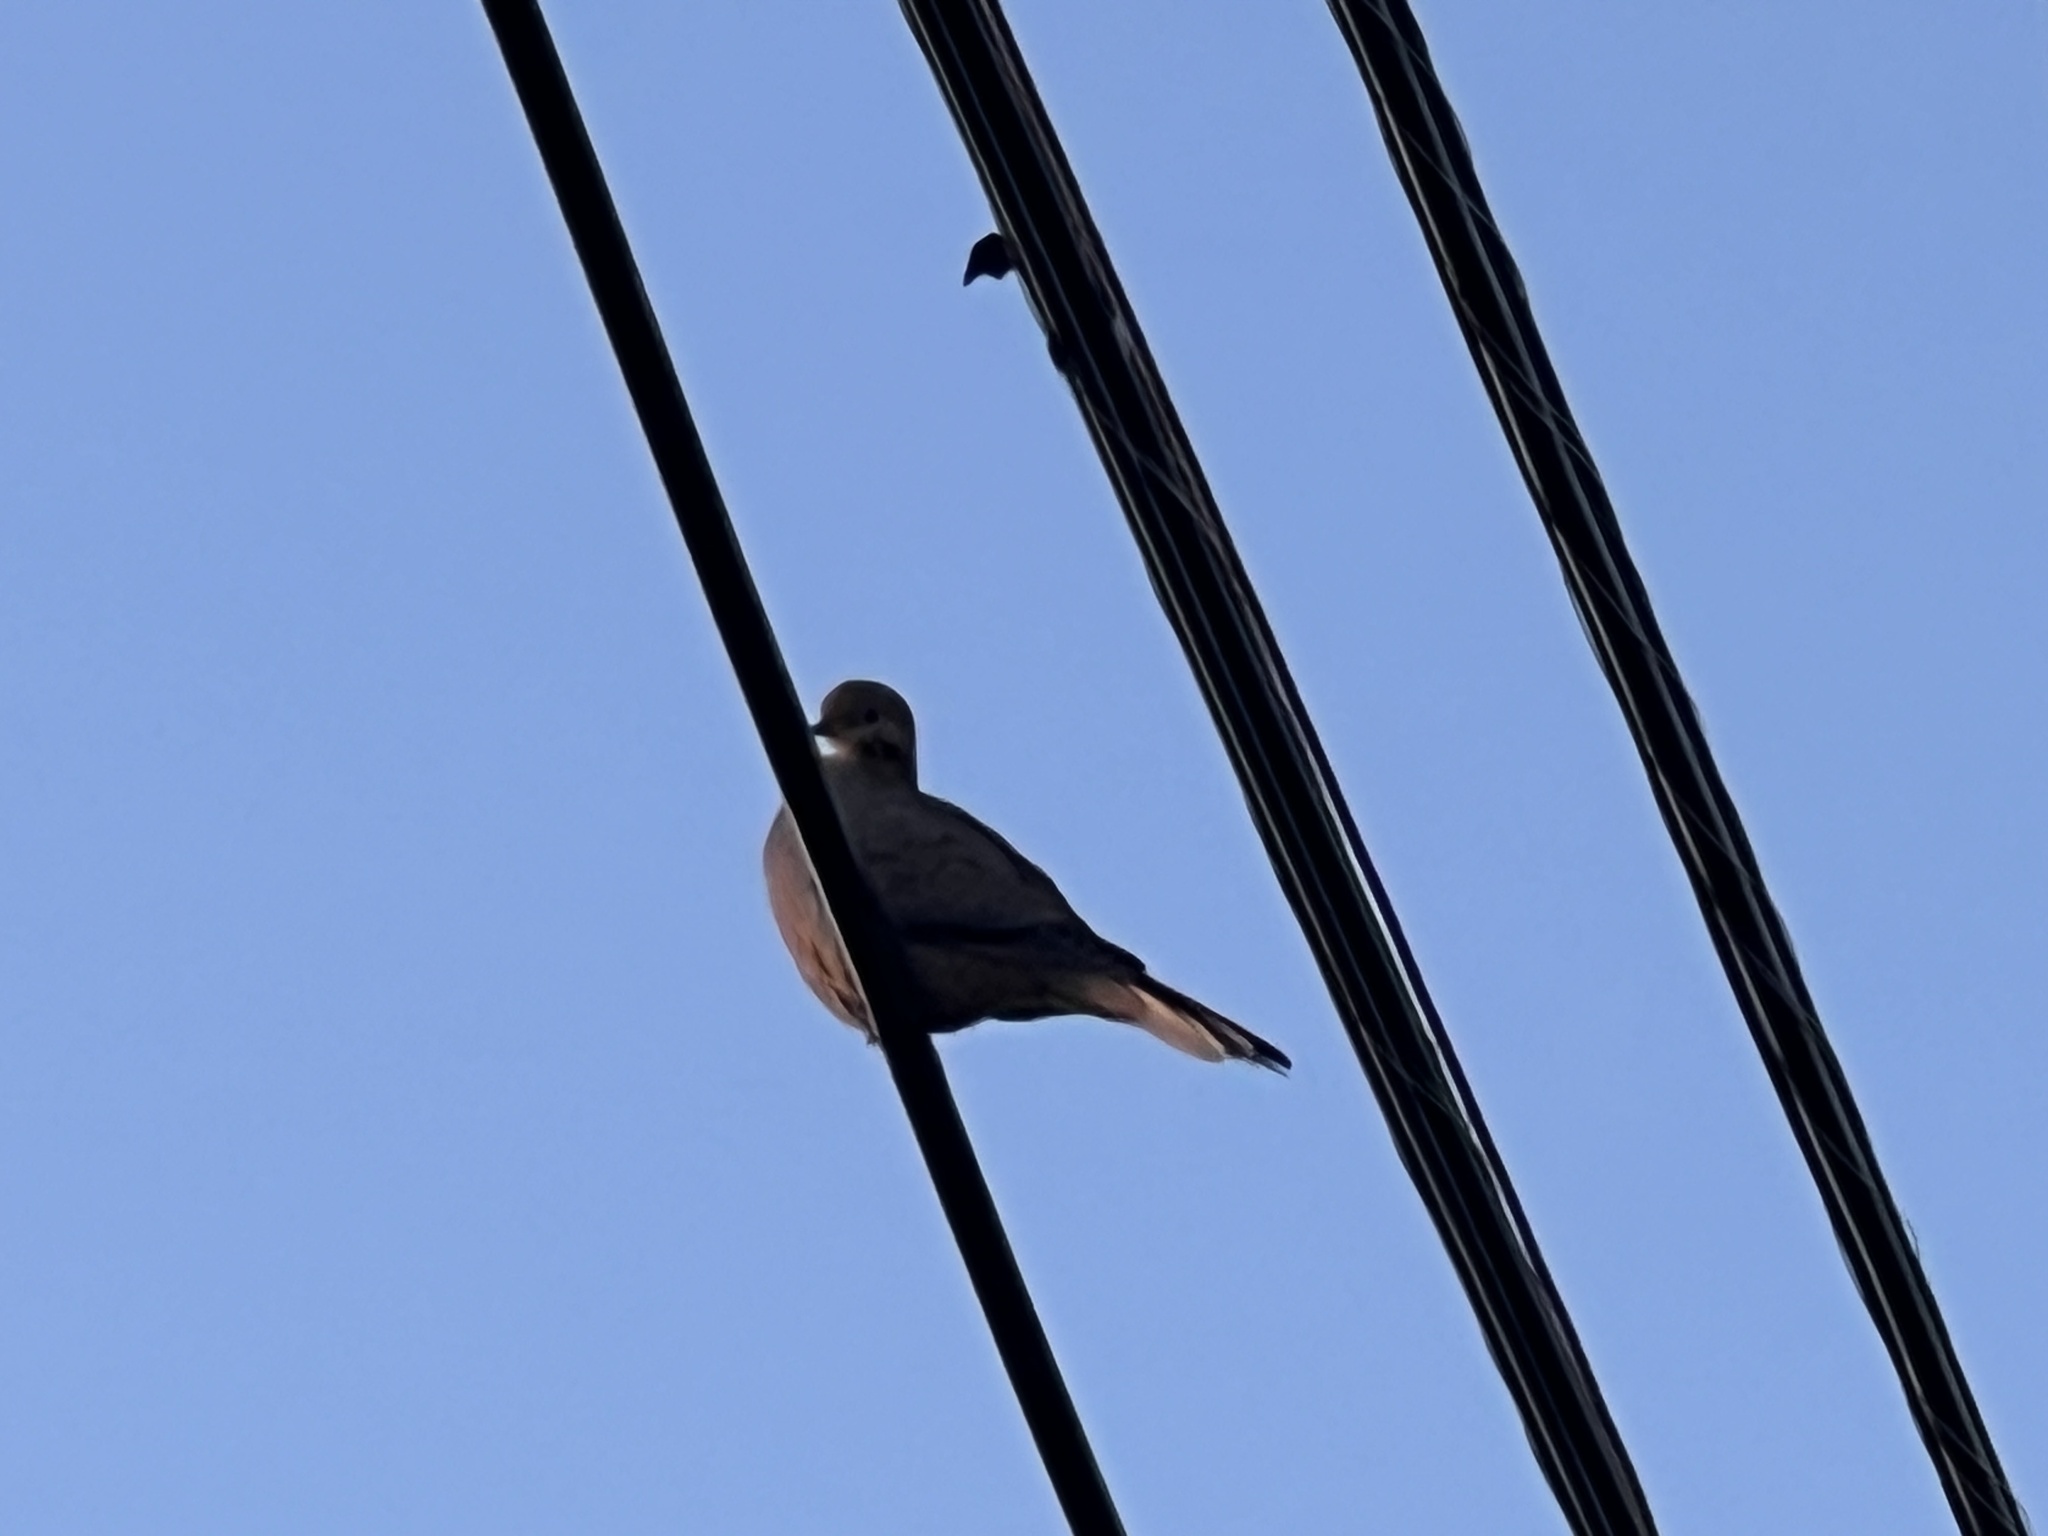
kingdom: Animalia
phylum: Chordata
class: Aves
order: Columbiformes
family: Columbidae
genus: Zenaida
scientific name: Zenaida macroura
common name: Mourning dove
